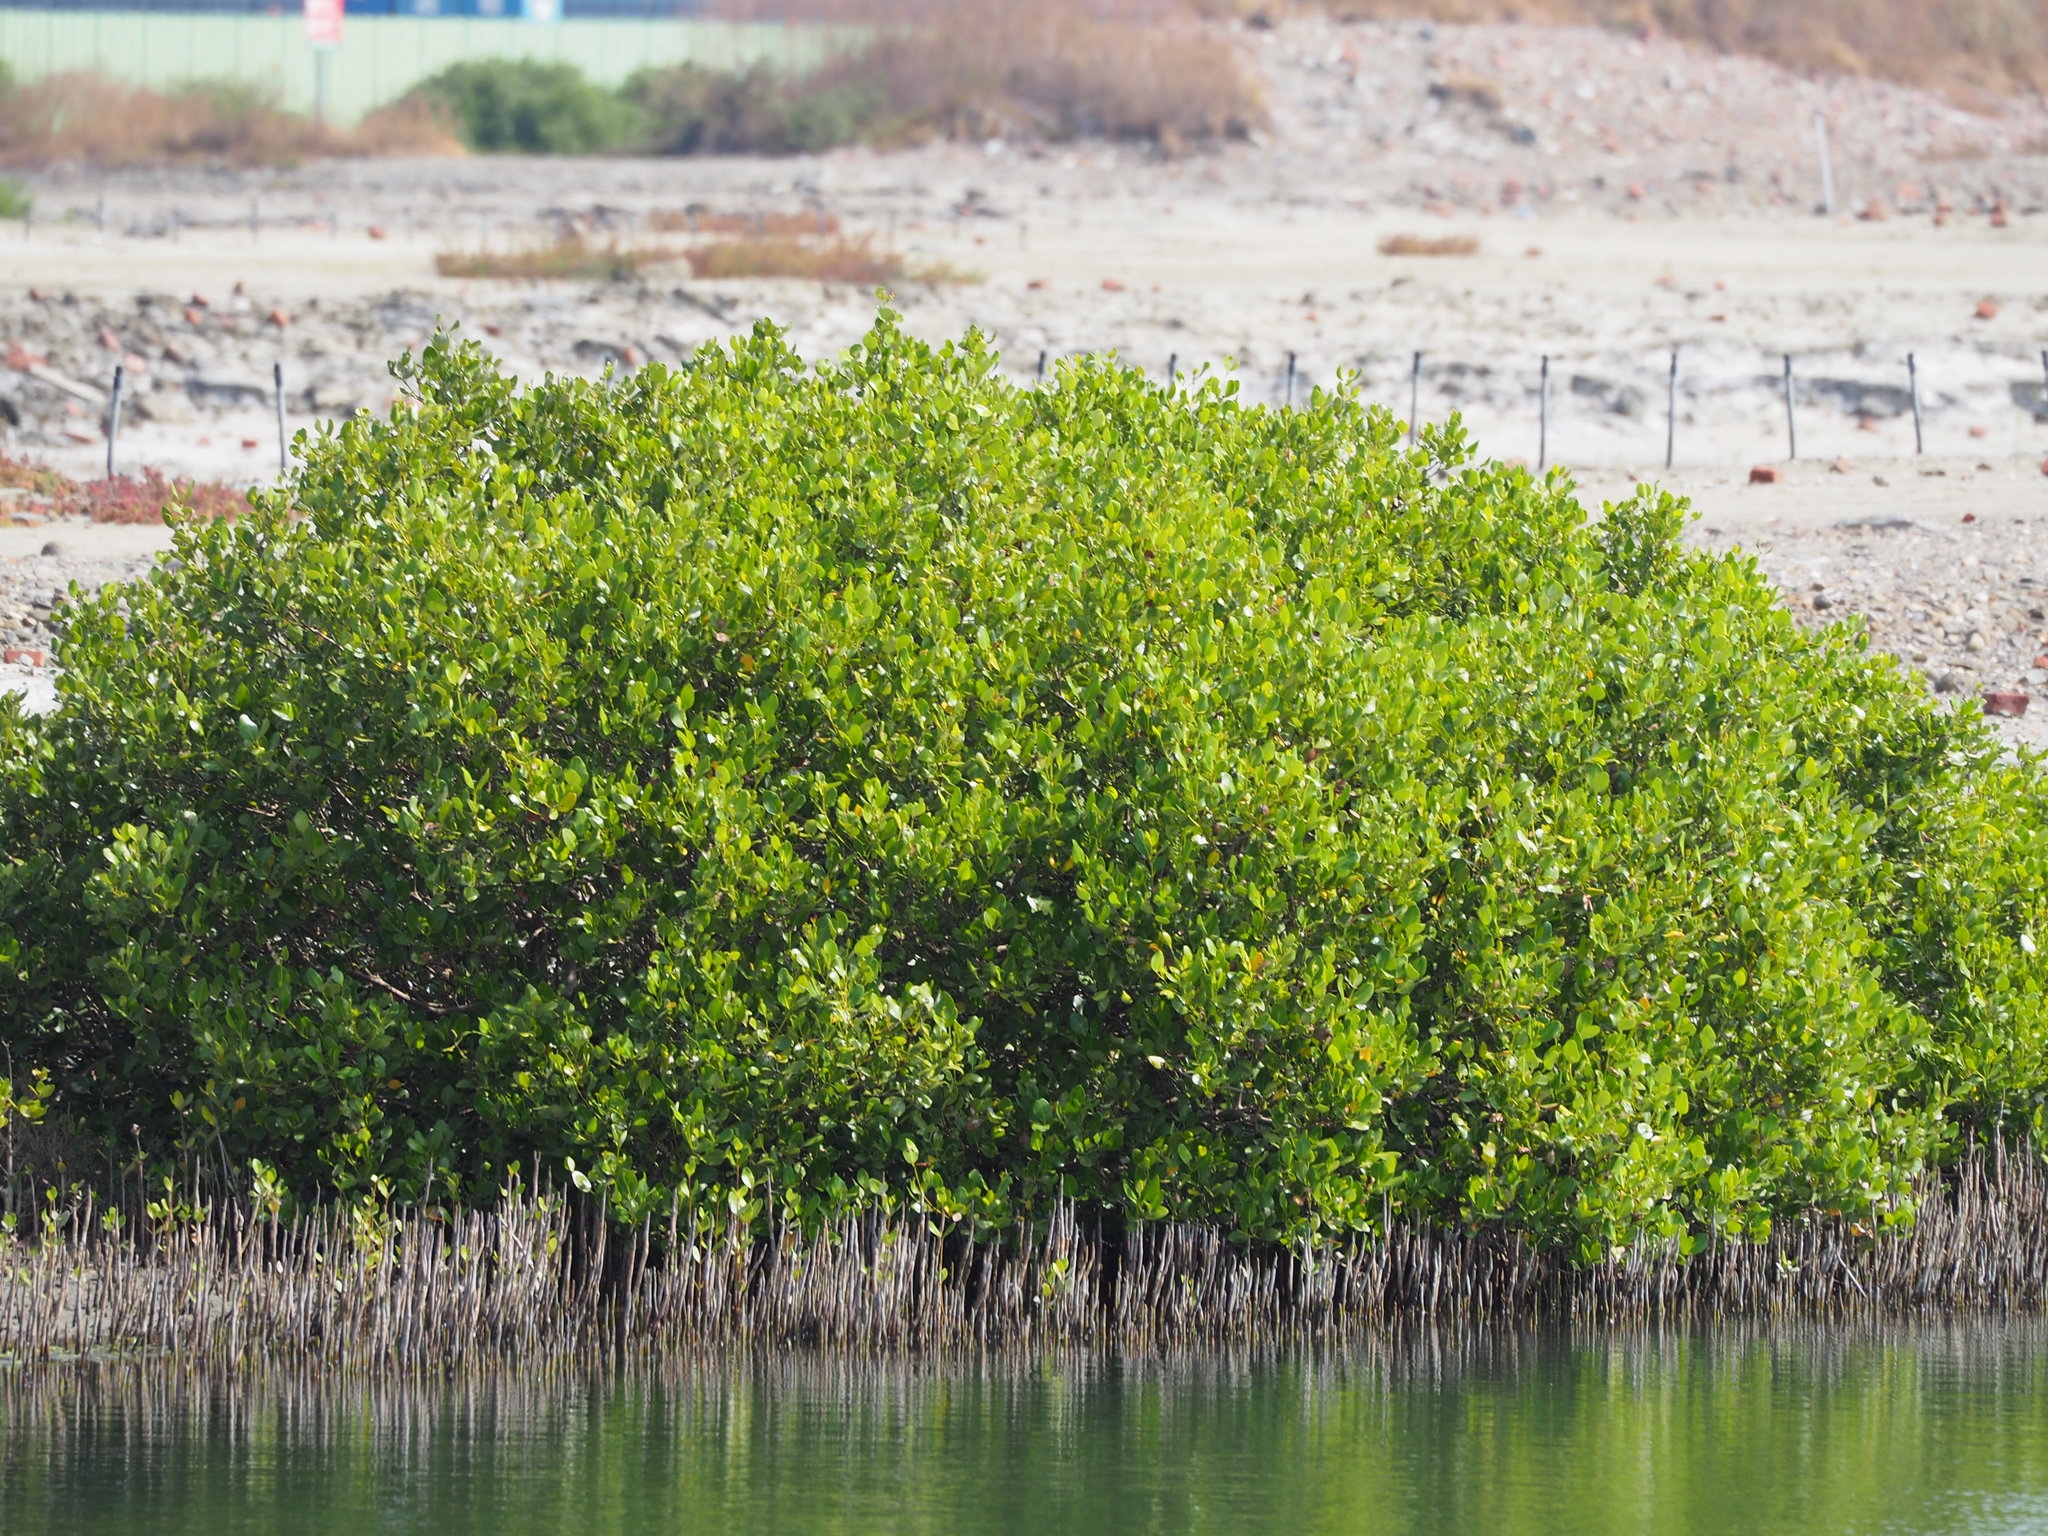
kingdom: Plantae
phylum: Tracheophyta
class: Magnoliopsida
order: Lamiales
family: Acanthaceae
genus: Avicennia
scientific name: Avicennia marina
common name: Gray mangrove
